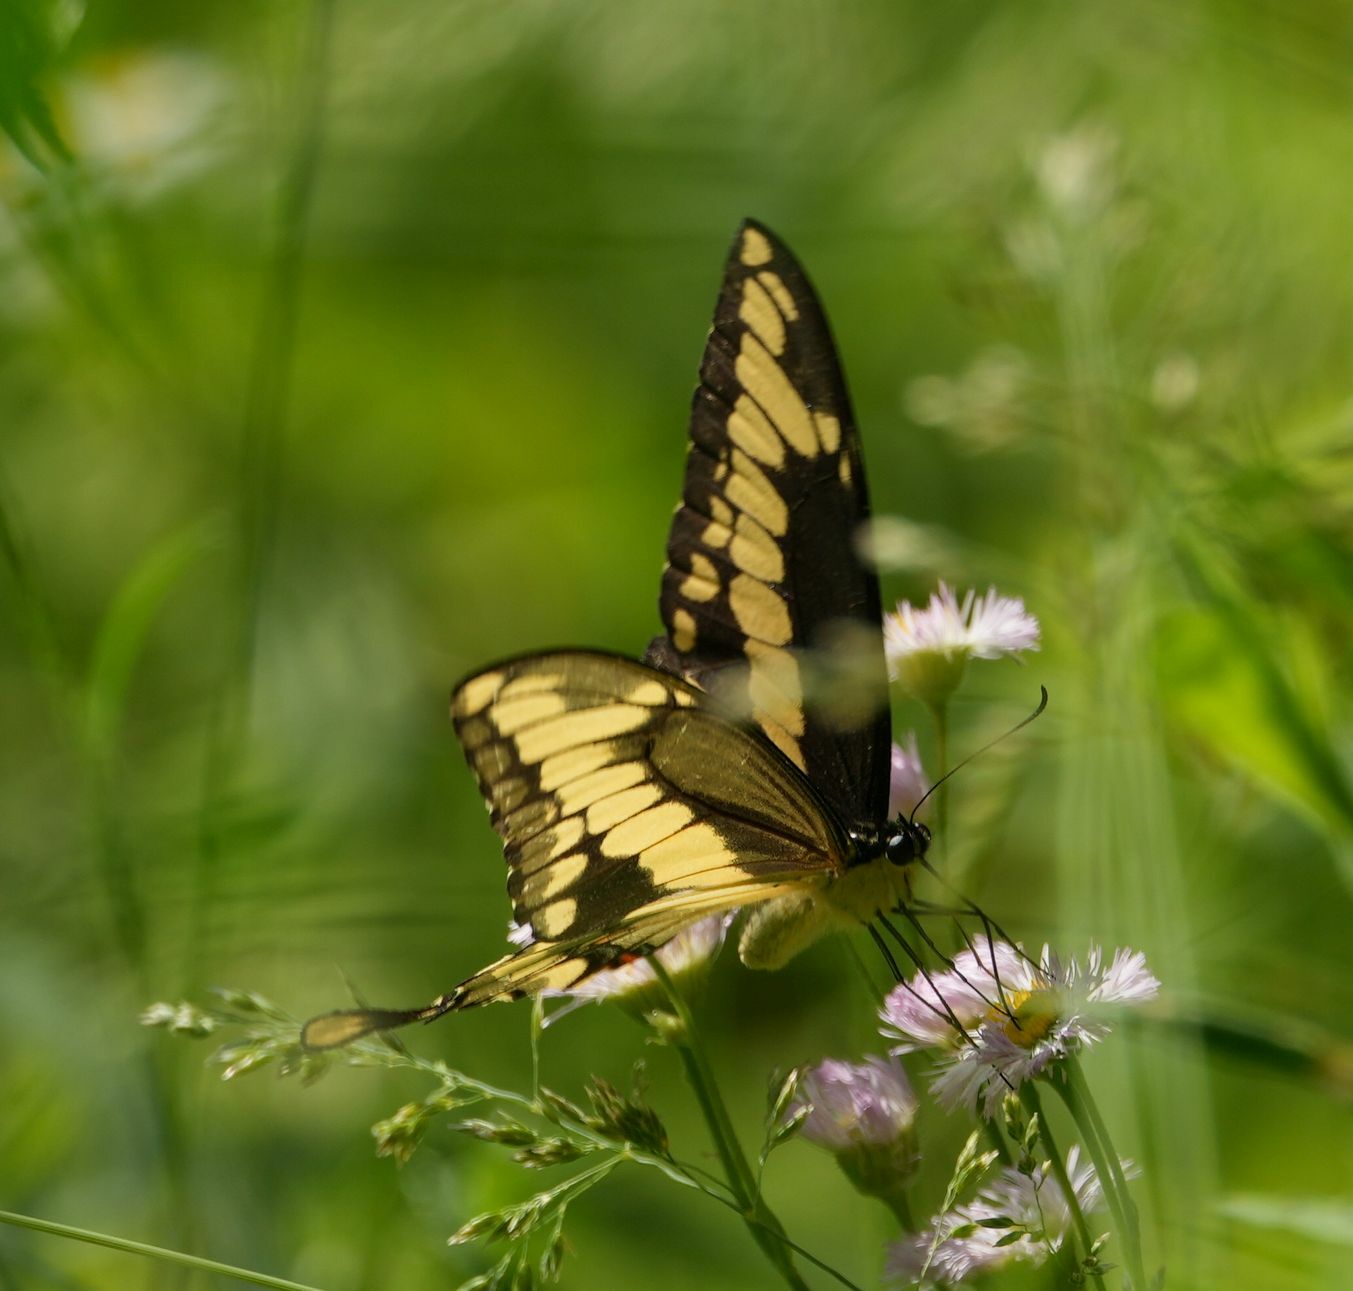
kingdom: Animalia
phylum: Arthropoda
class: Insecta
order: Lepidoptera
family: Papilionidae
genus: Papilio
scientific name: Papilio cresphontes
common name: Giant swallowtail
